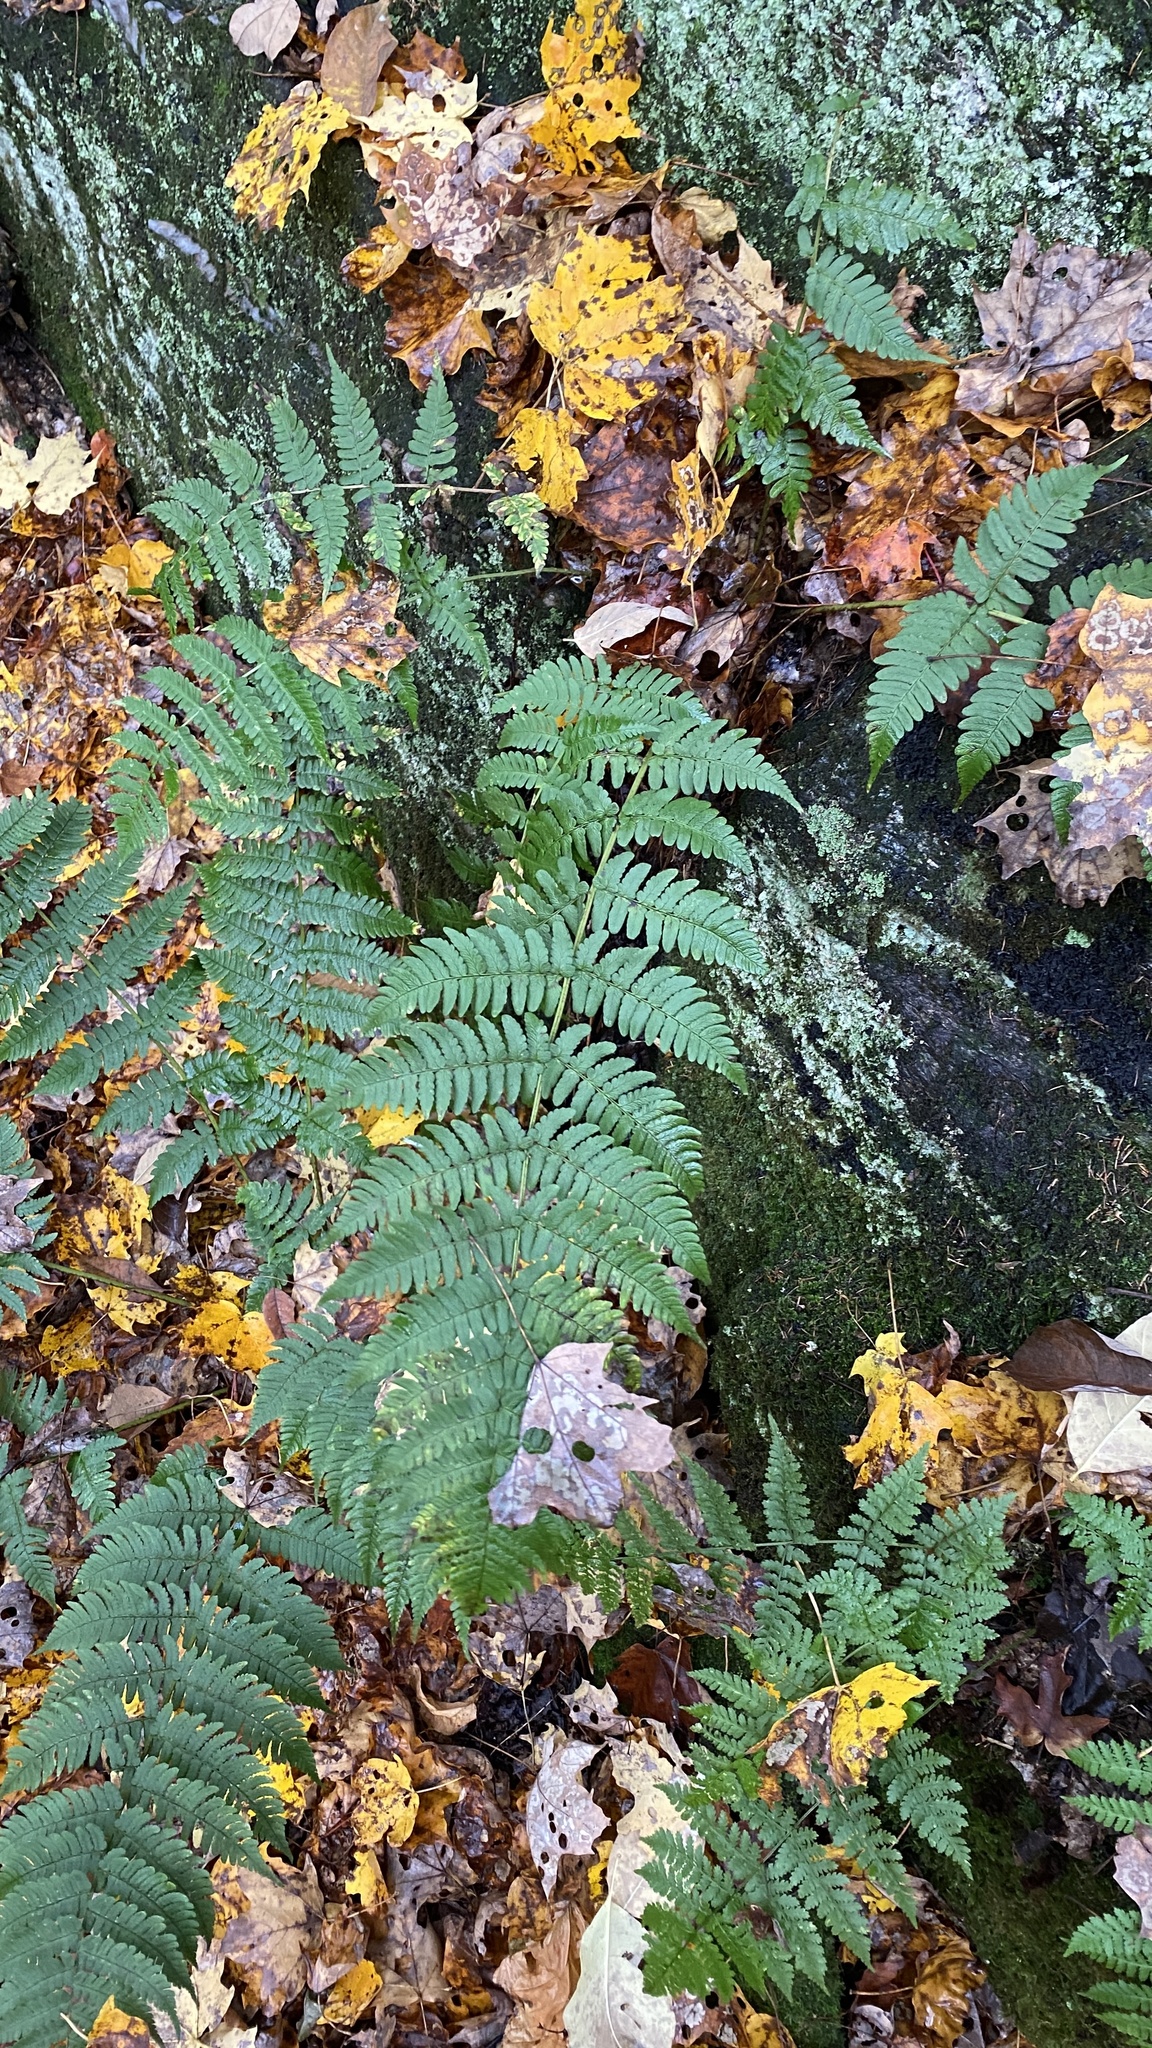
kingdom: Plantae
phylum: Tracheophyta
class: Polypodiopsida
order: Polypodiales
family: Dryopteridaceae
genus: Dryopteris
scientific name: Dryopteris marginalis
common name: Marginal wood fern
